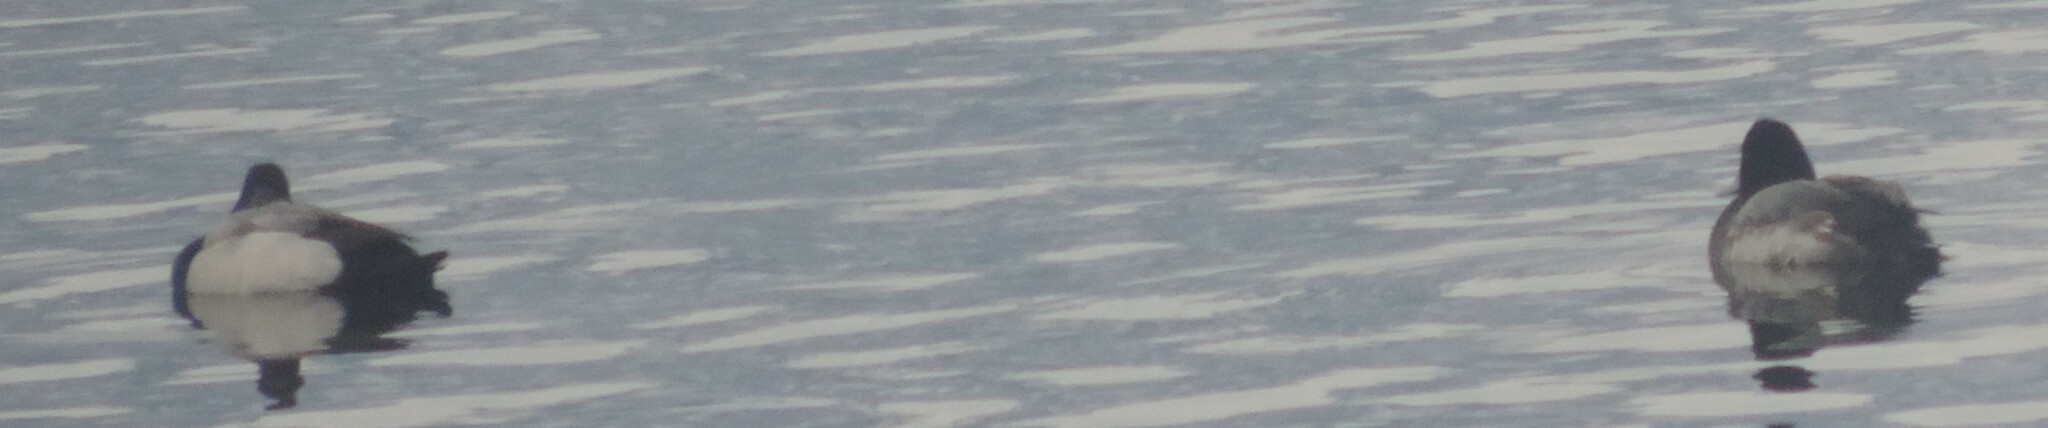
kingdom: Animalia
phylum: Chordata
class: Aves
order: Anseriformes
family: Anatidae
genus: Aythya
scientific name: Aythya marila
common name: Greater scaup
